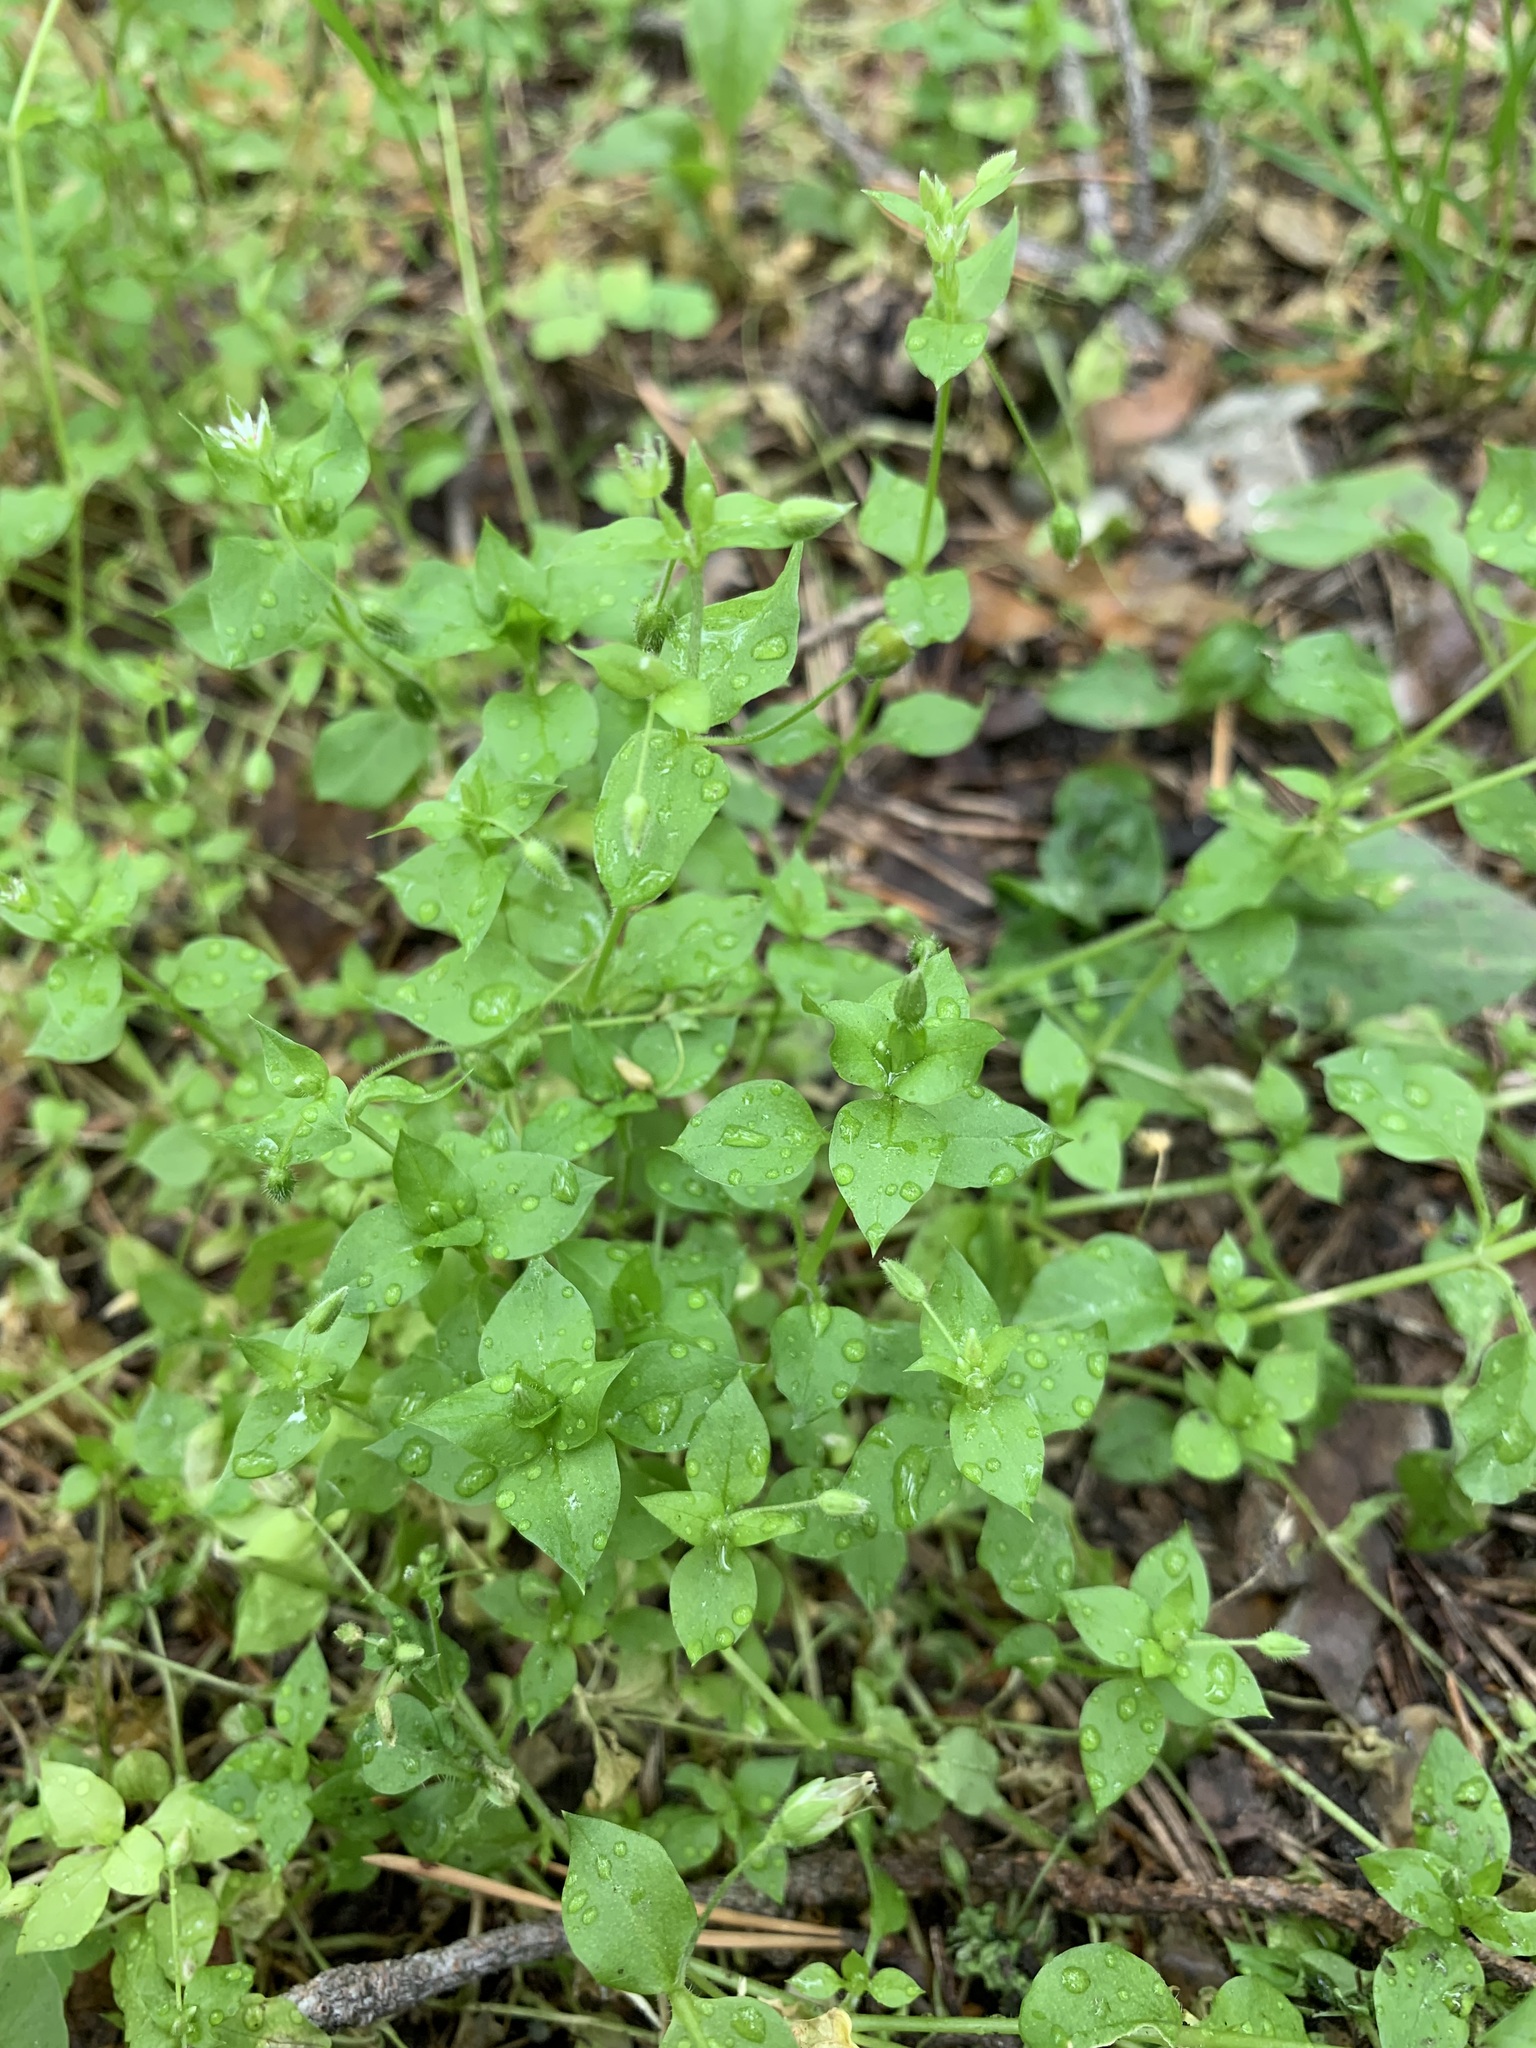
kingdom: Plantae
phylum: Tracheophyta
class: Magnoliopsida
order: Caryophyllales
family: Caryophyllaceae
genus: Stellaria
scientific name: Stellaria media
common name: Common chickweed
